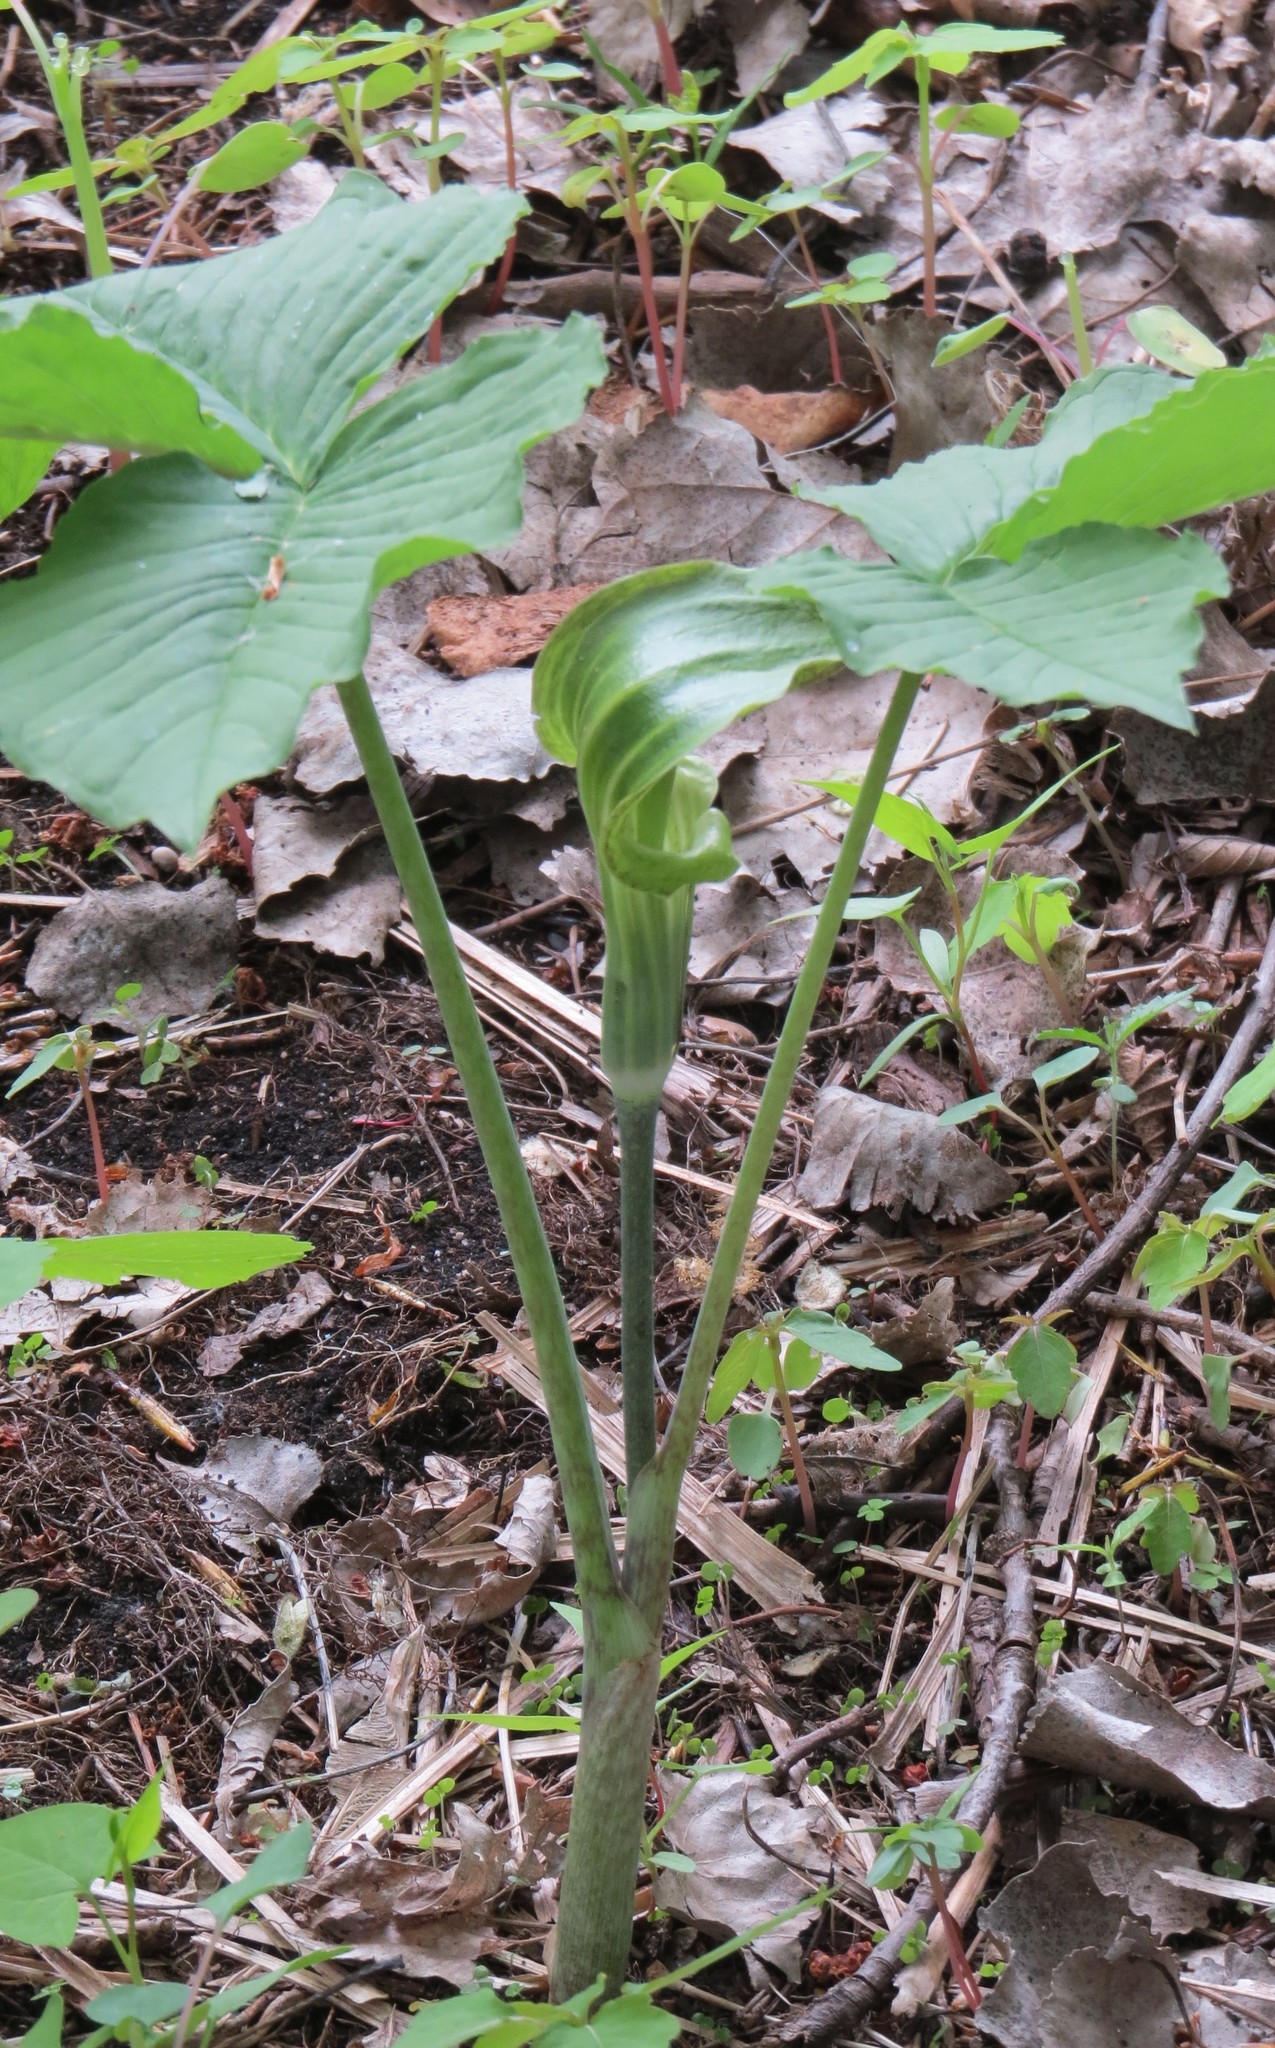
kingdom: Plantae
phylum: Tracheophyta
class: Liliopsida
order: Alismatales
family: Araceae
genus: Arisaema
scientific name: Arisaema triphyllum
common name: Jack-in-the-pulpit
